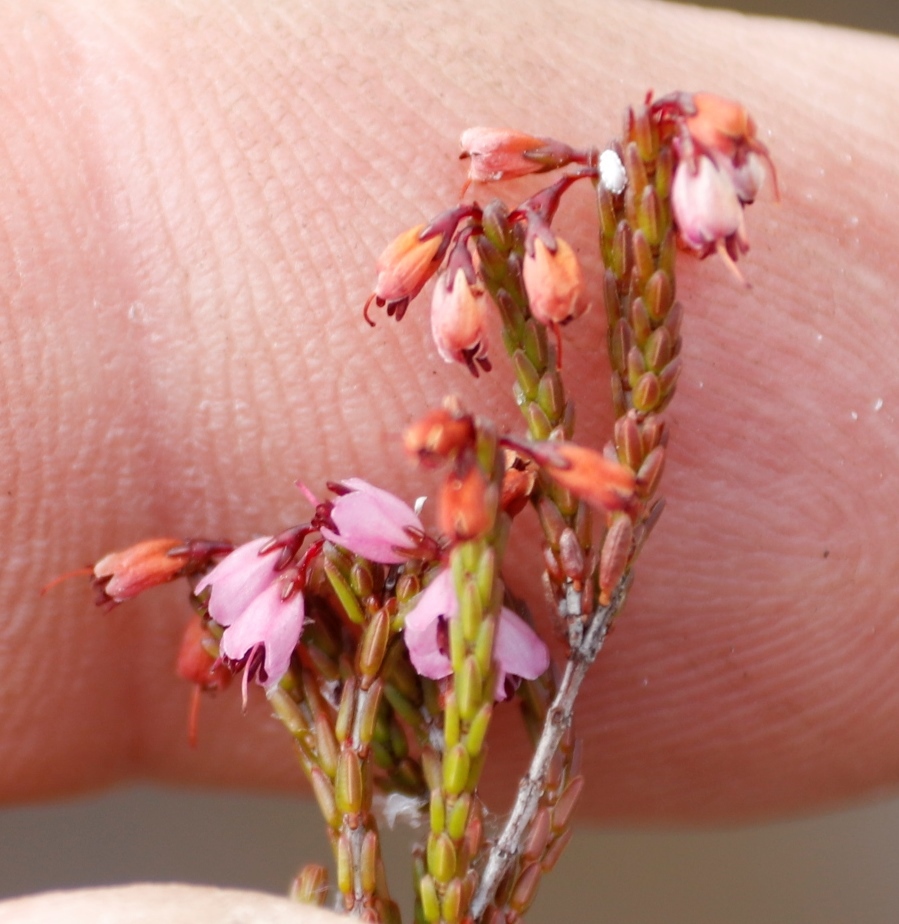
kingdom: Plantae
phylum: Tracheophyta
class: Magnoliopsida
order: Ericales
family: Ericaceae
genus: Erica
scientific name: Erica equisetifolia
